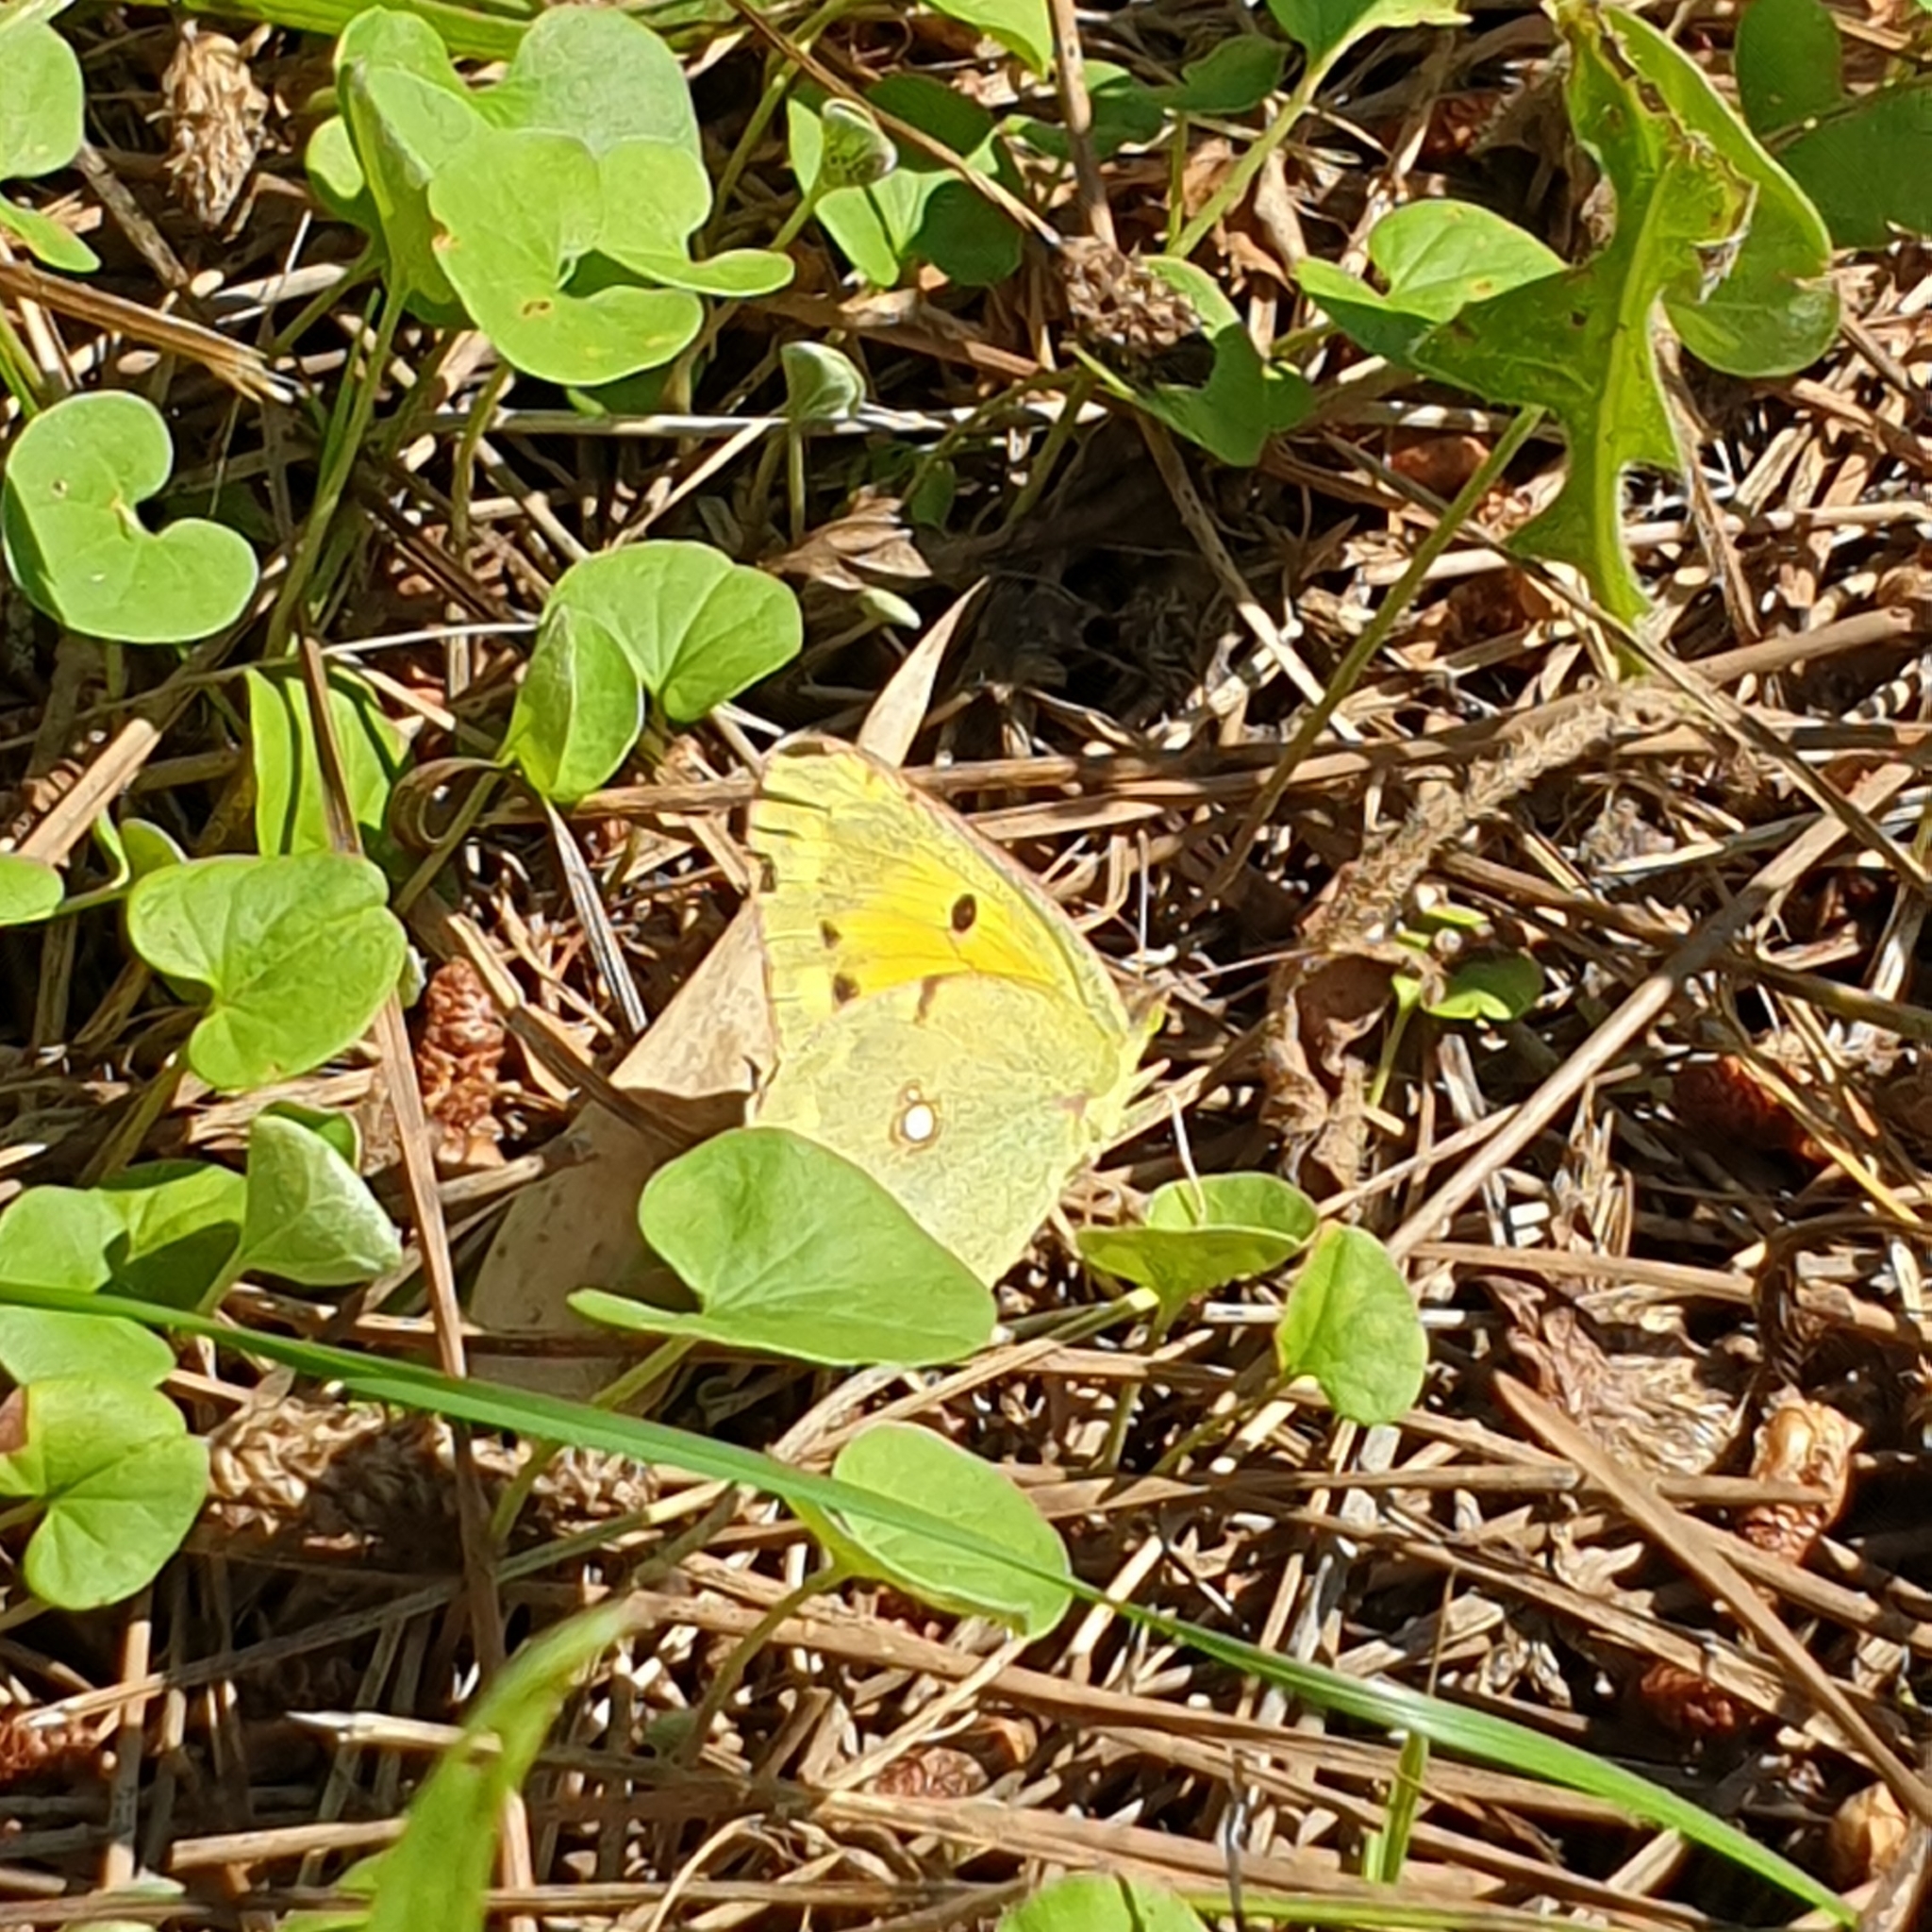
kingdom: Animalia
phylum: Arthropoda
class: Insecta
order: Lepidoptera
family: Pieridae
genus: Colias
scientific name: Colias croceus
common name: Clouded yellow
